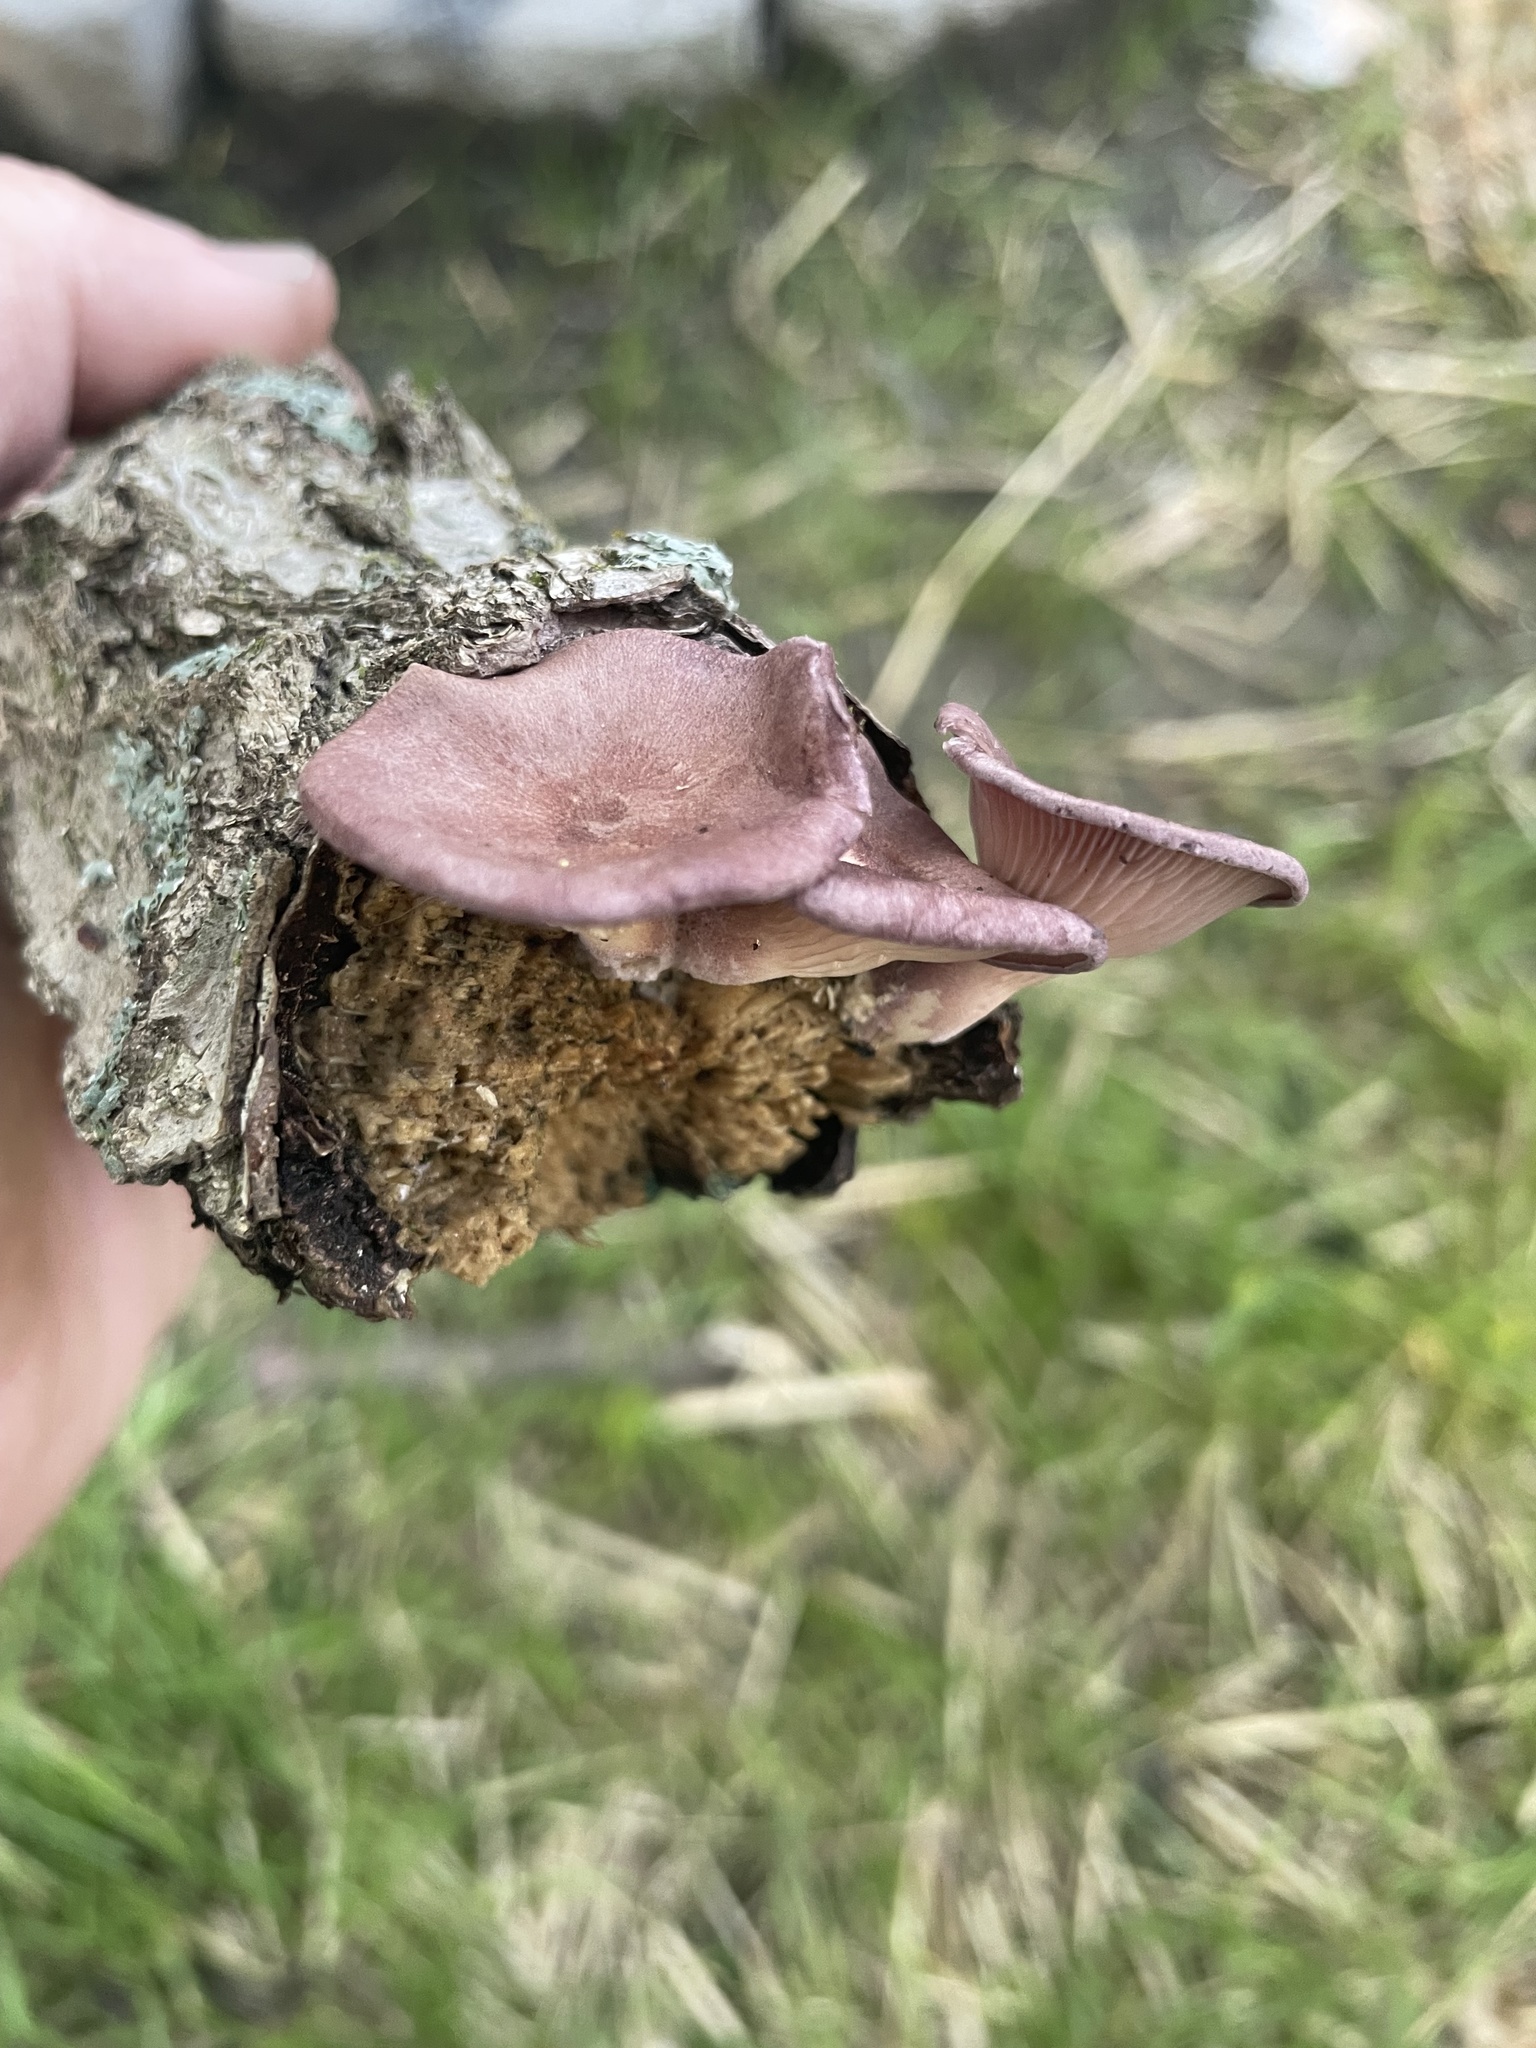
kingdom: Fungi
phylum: Basidiomycota
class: Agaricomycetes
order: Polyporales
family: Panaceae
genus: Panus
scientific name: Panus conchatus
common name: Lilac oysterling
